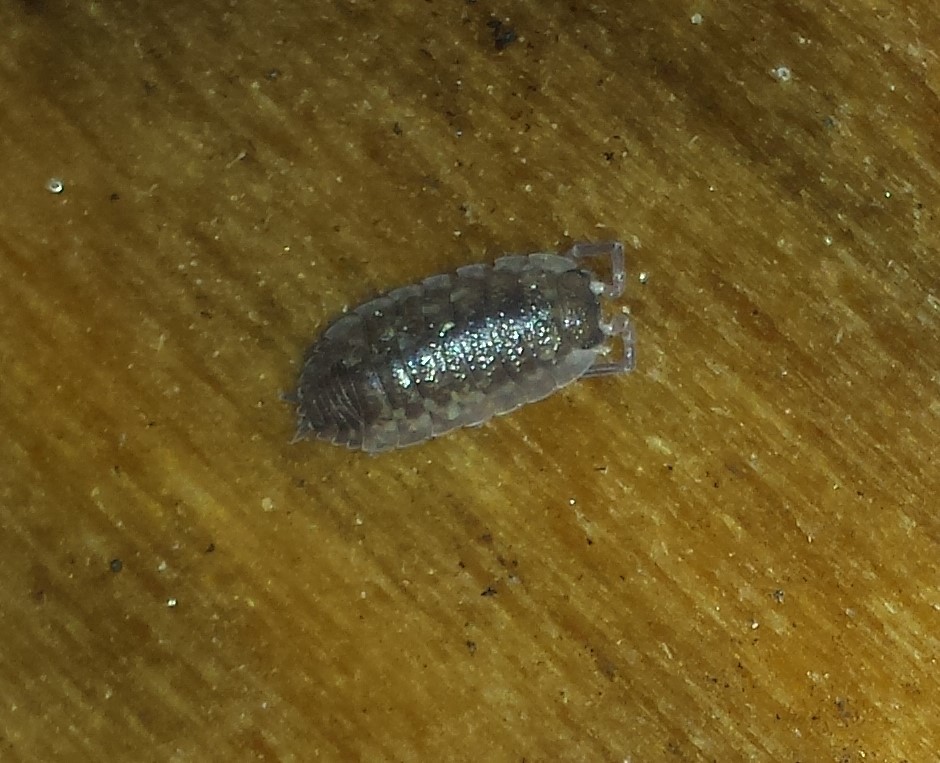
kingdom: Animalia
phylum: Arthropoda
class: Malacostraca
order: Isopoda
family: Porcellionidae
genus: Porcellio
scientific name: Porcellio scaber
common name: Common rough woodlouse
